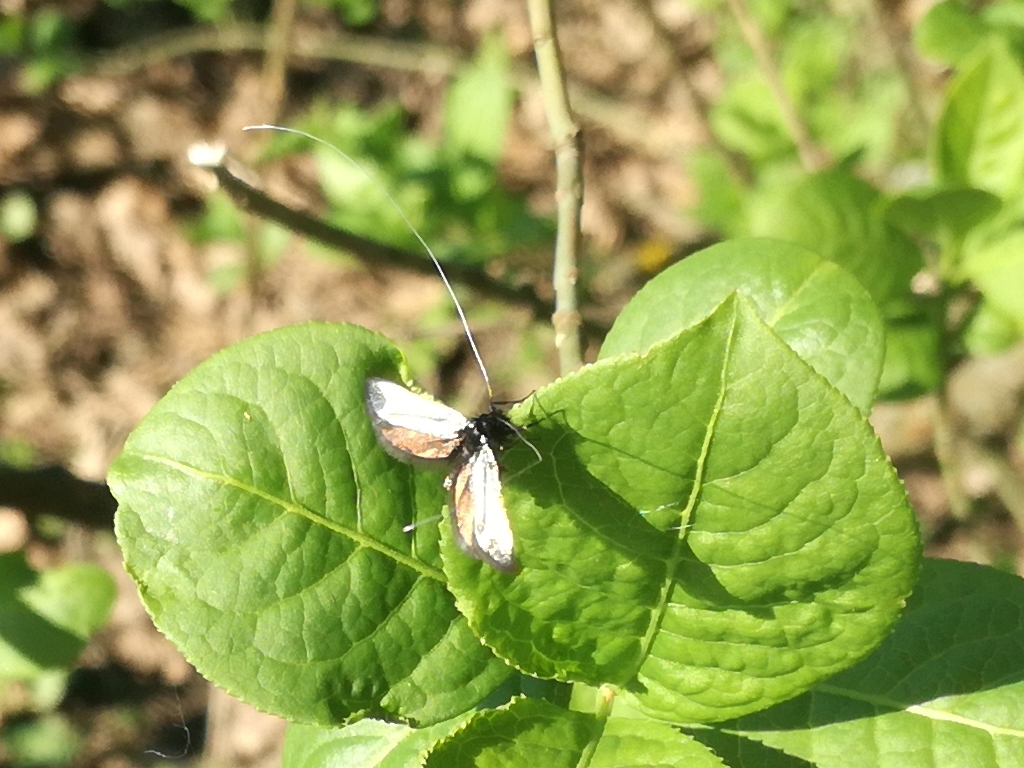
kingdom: Animalia
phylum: Arthropoda
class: Insecta
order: Lepidoptera
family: Adelidae
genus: Adela
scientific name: Adela viridella
